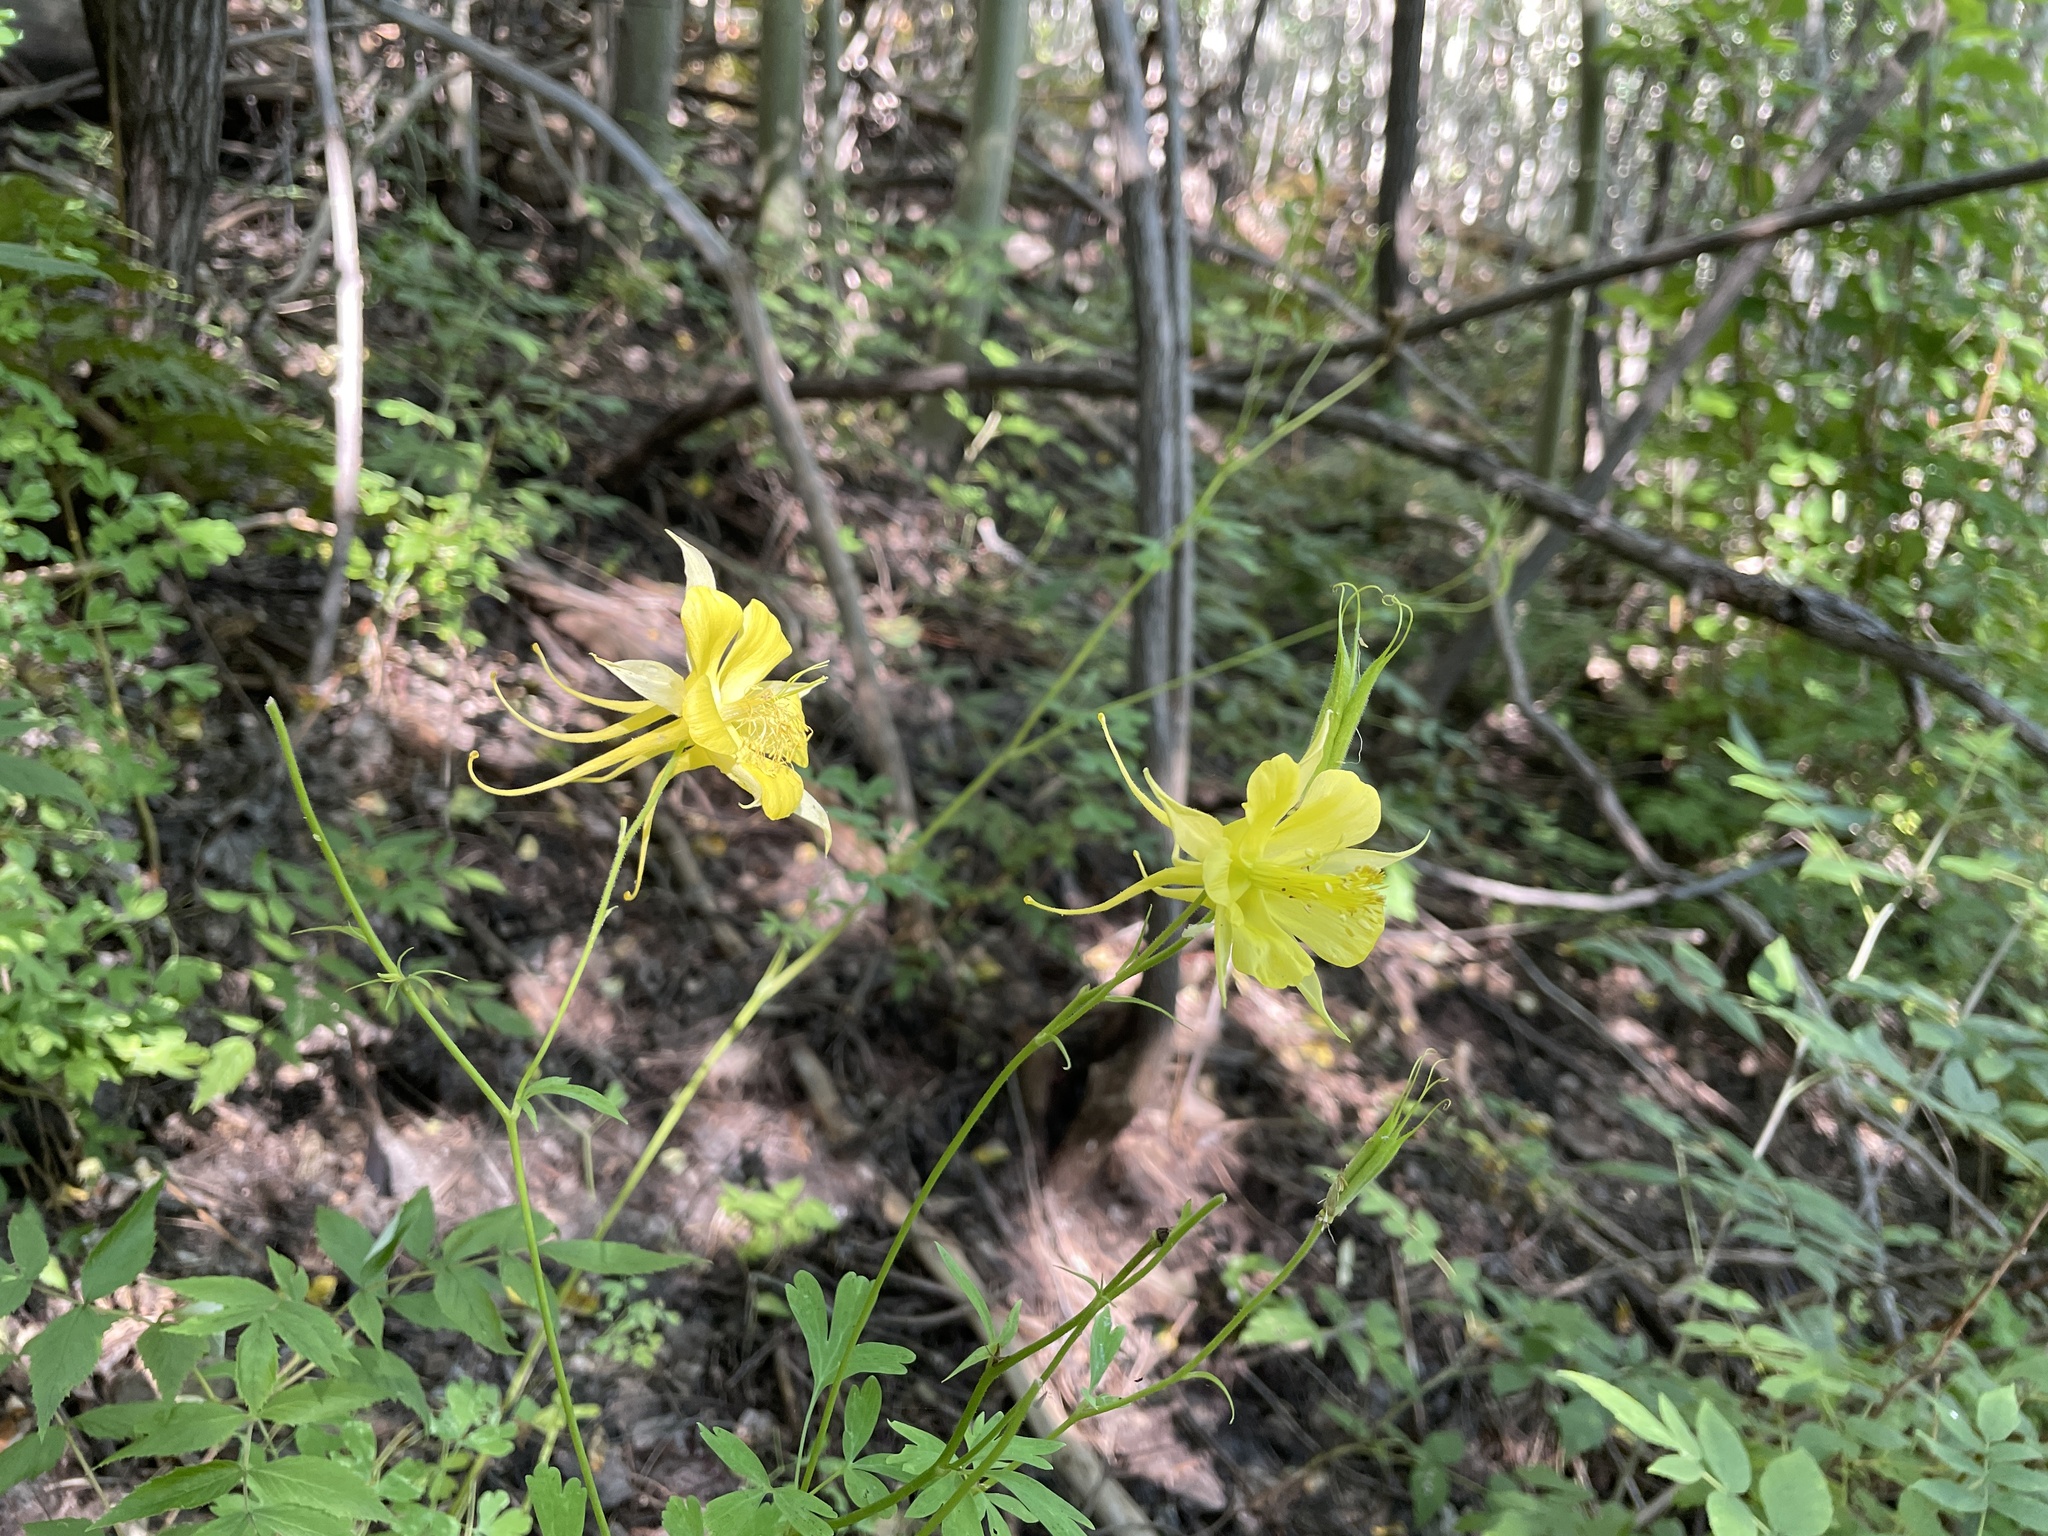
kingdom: Plantae
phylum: Tracheophyta
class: Magnoliopsida
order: Ranunculales
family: Ranunculaceae
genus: Aquilegia
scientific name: Aquilegia chrysantha
